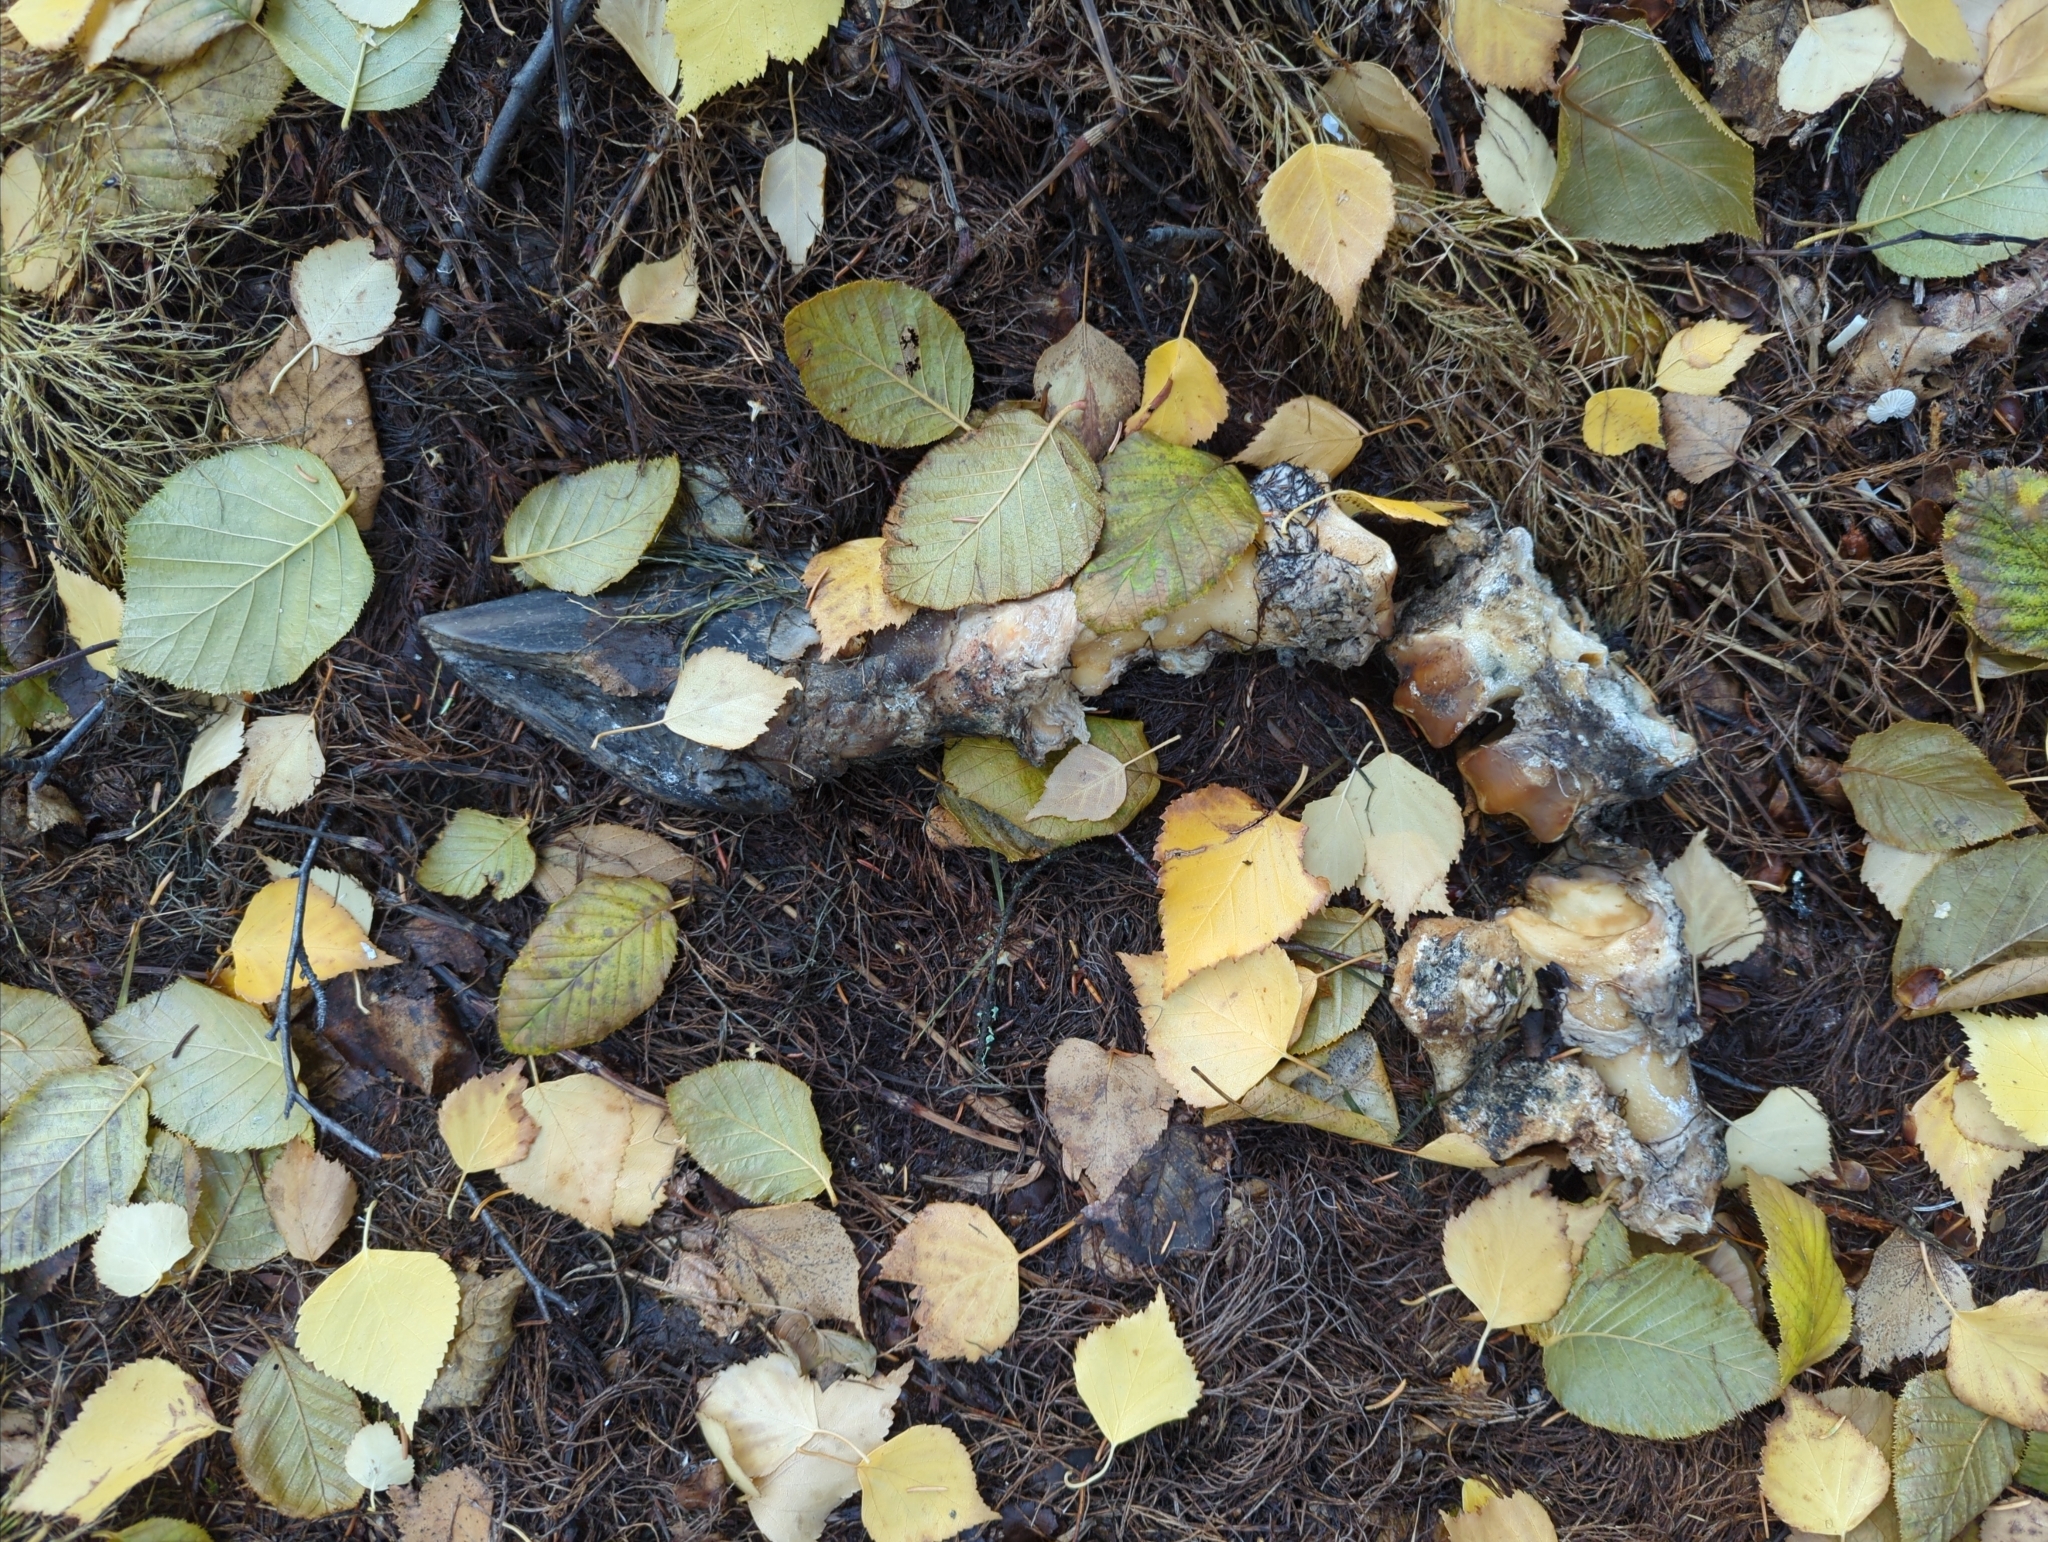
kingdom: Animalia
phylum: Chordata
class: Mammalia
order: Artiodactyla
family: Cervidae
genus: Alces
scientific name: Alces alces
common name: Moose
